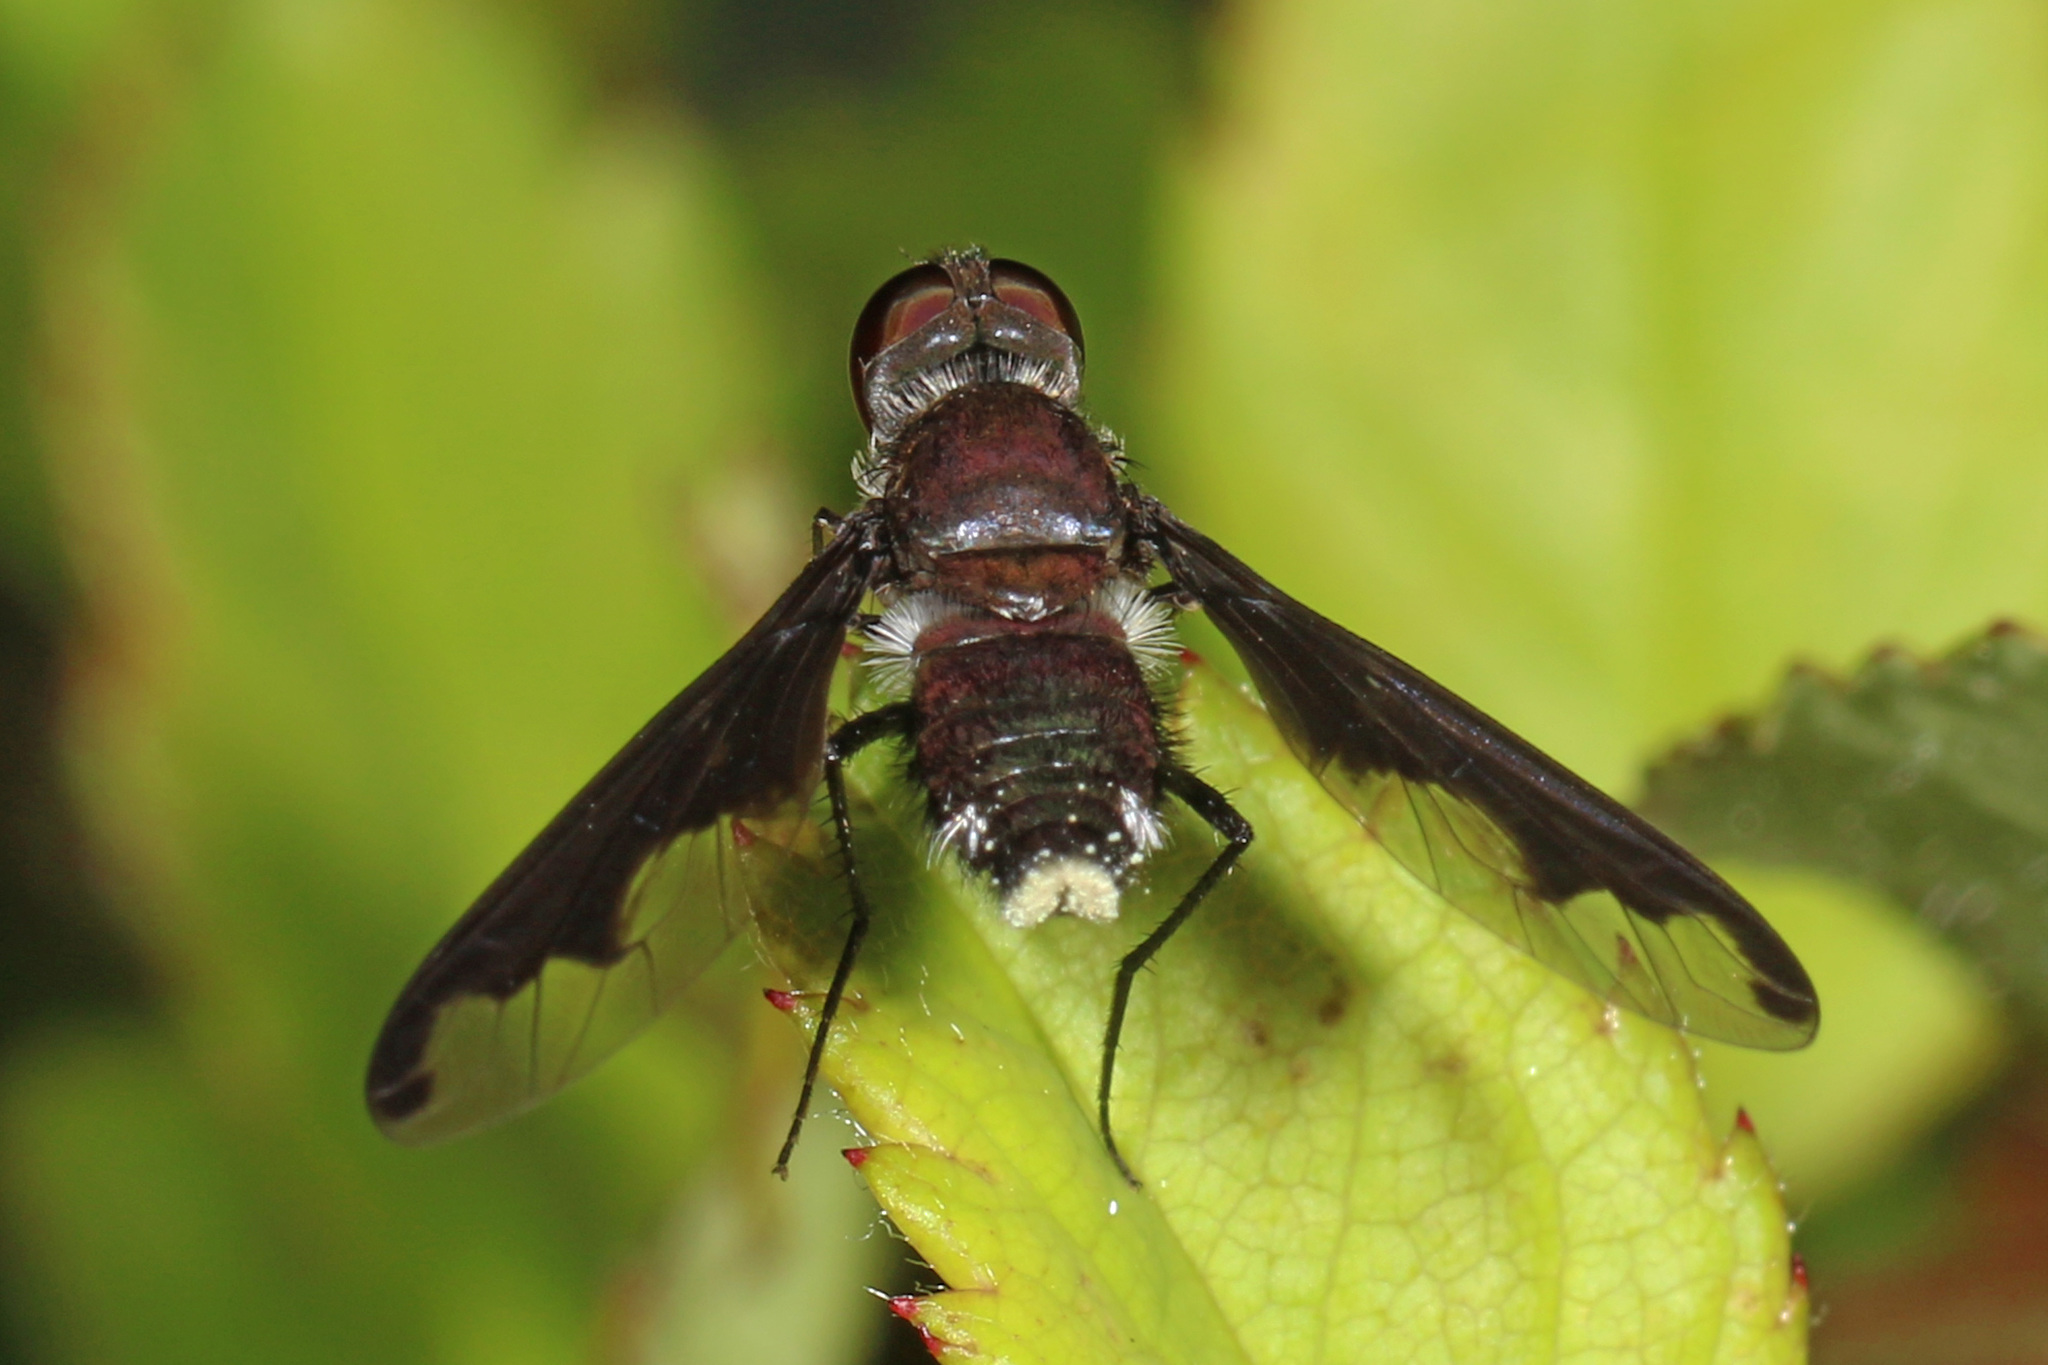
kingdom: Animalia
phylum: Arthropoda
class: Insecta
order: Diptera
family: Bombyliidae
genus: Anthrax
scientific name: Anthrax argyropygus
